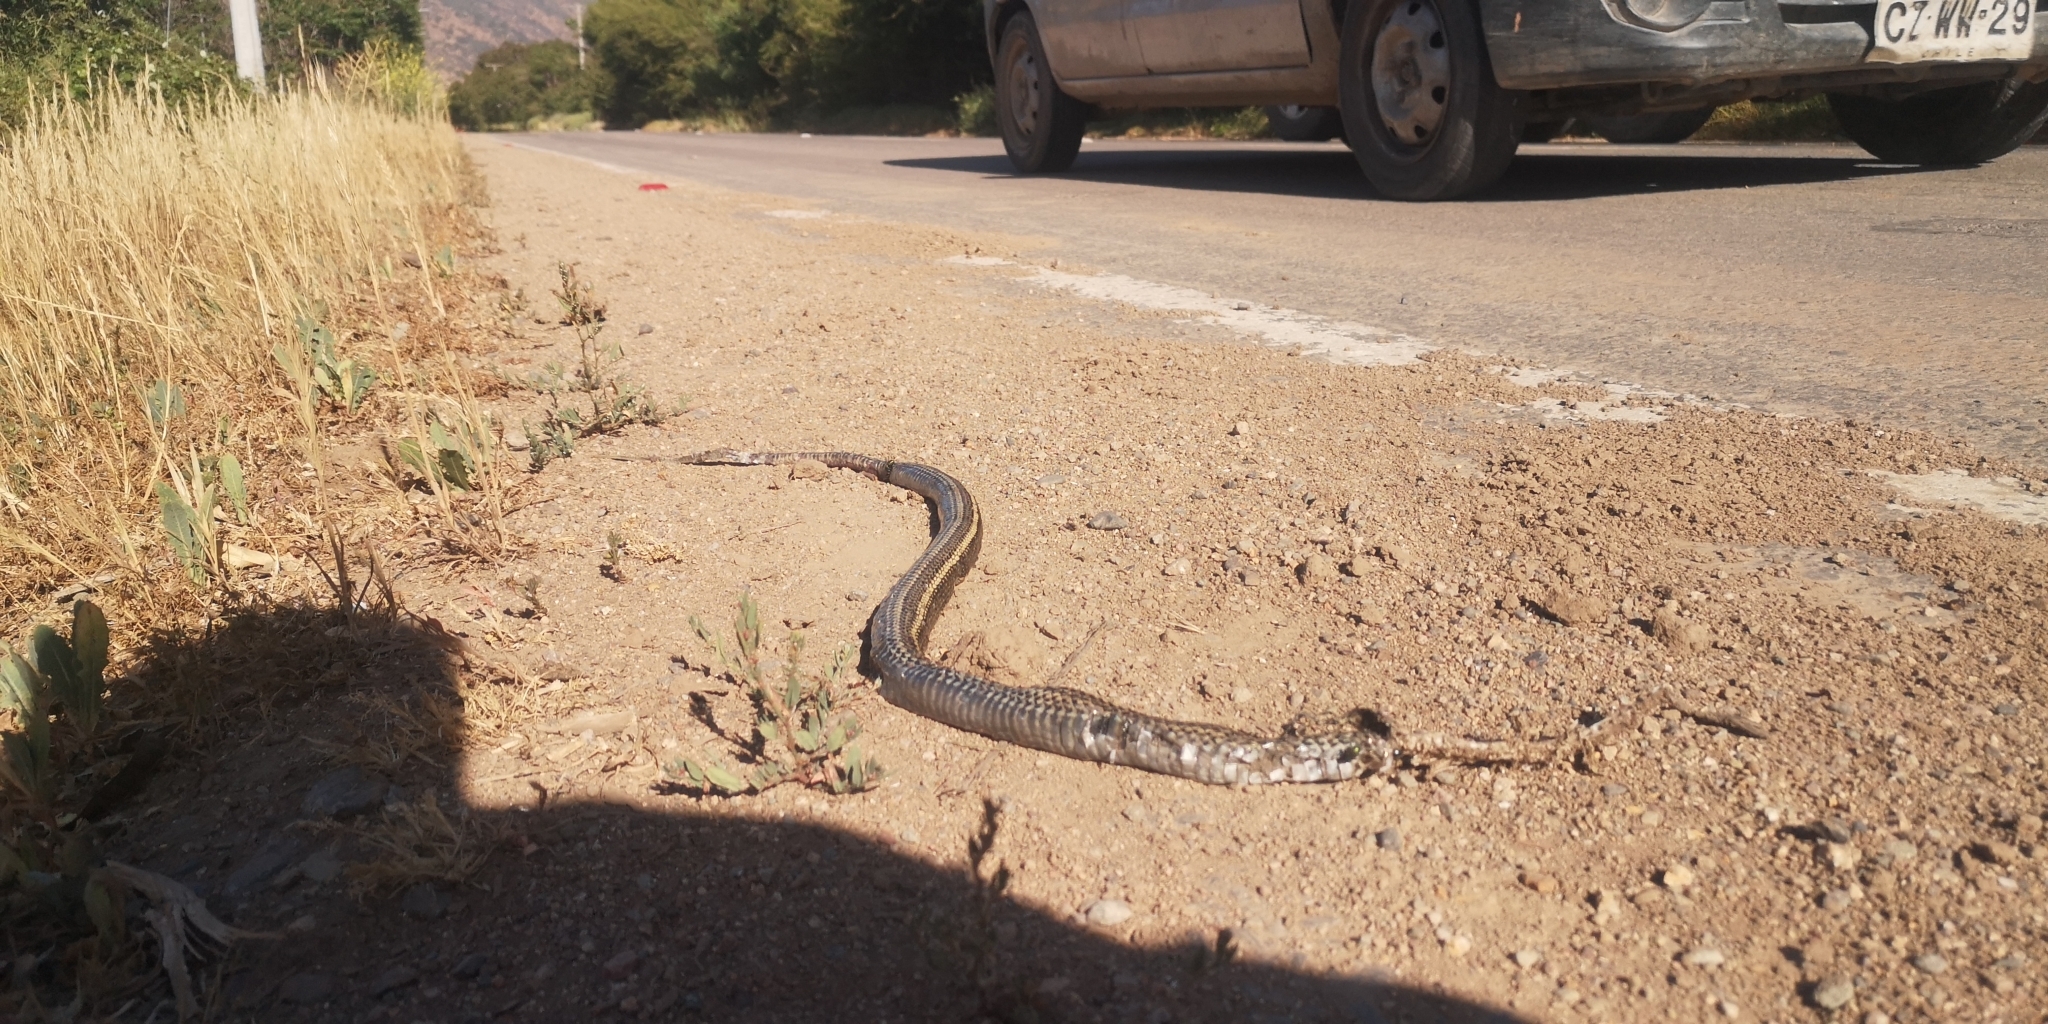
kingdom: Animalia
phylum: Chordata
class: Squamata
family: Colubridae
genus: Philodryas
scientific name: Philodryas chamissonis
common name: Chilean green racer
